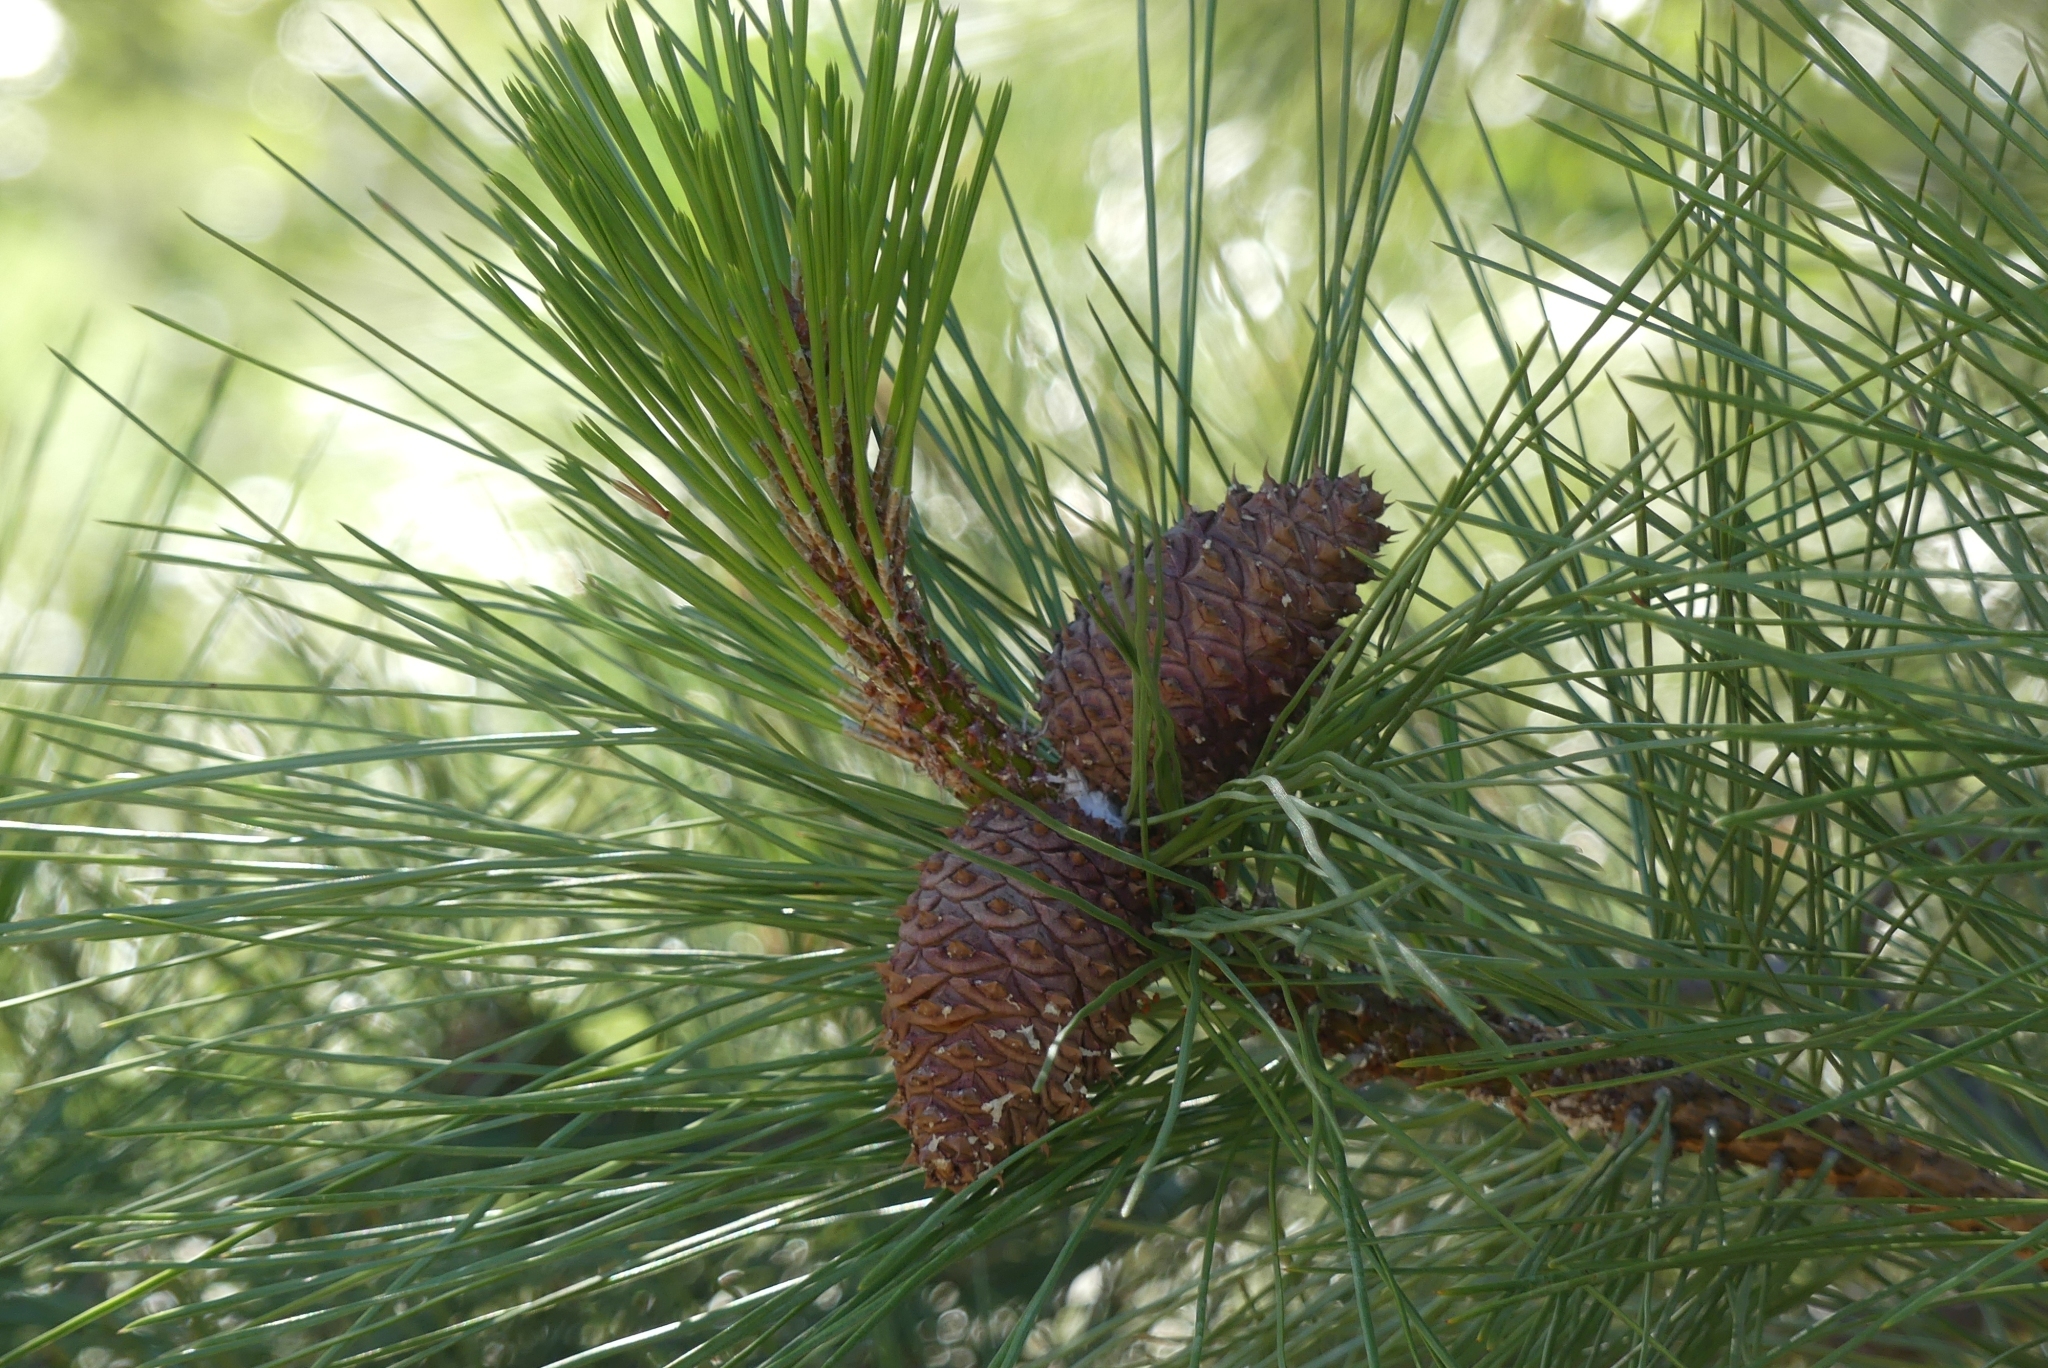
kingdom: Plantae
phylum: Tracheophyta
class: Pinopsida
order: Pinales
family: Pinaceae
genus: Pinus
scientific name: Pinus ponderosa
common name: Western yellow-pine
